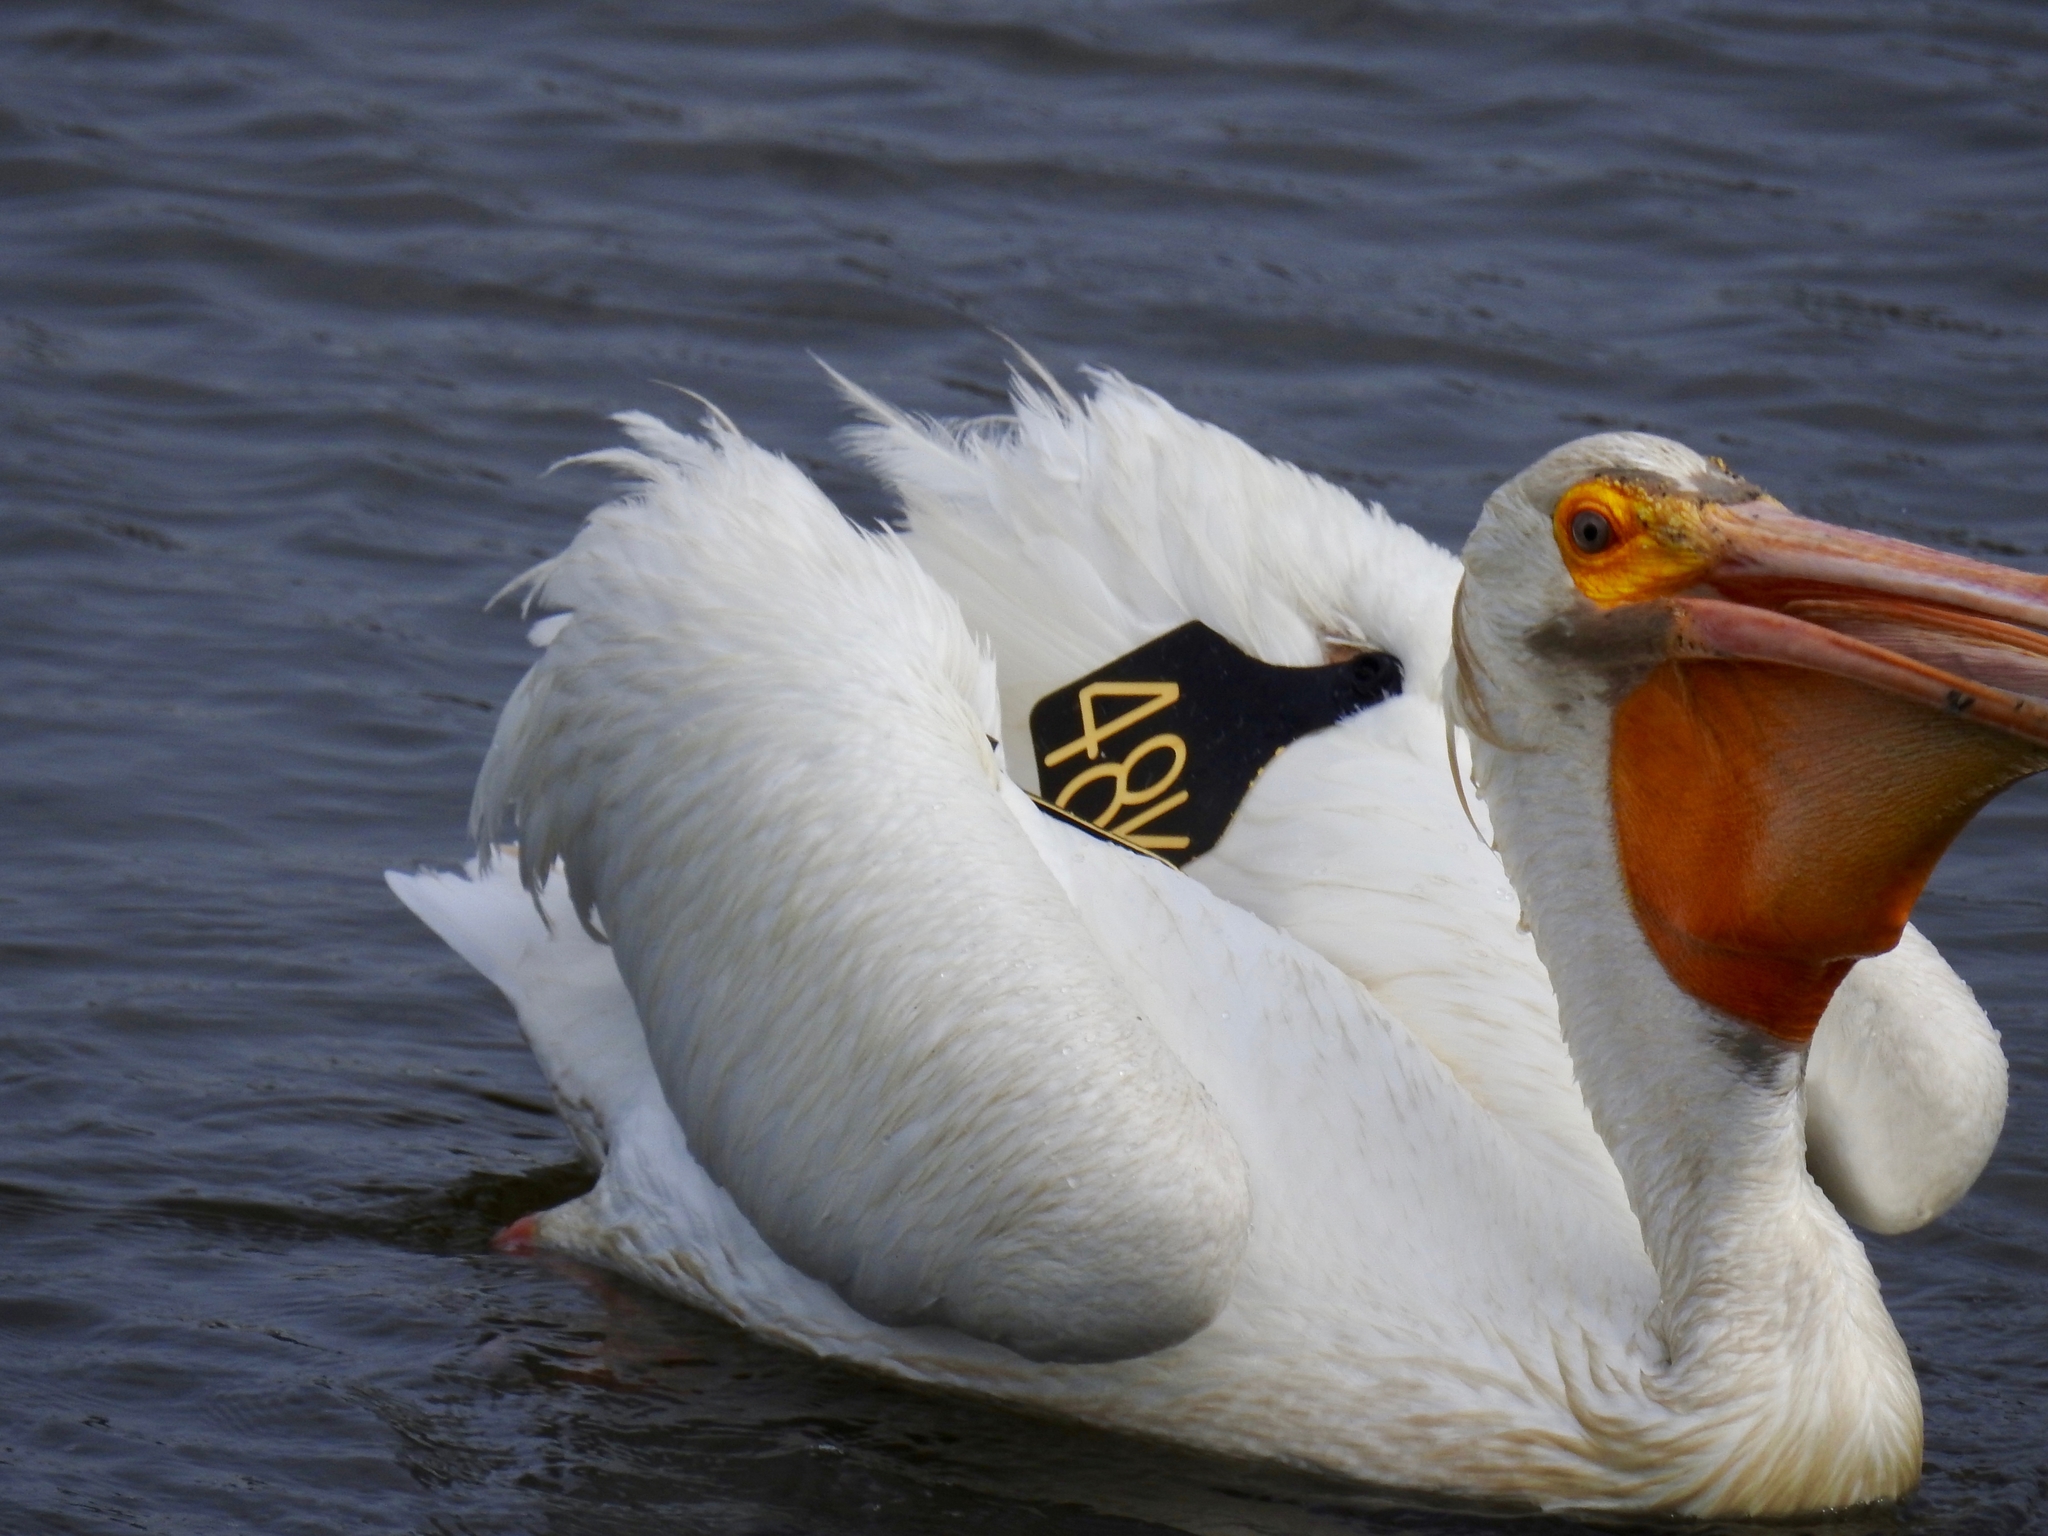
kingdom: Animalia
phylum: Chordata
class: Aves
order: Pelecaniformes
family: Pelecanidae
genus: Pelecanus
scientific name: Pelecanus erythrorhynchos
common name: American white pelican
